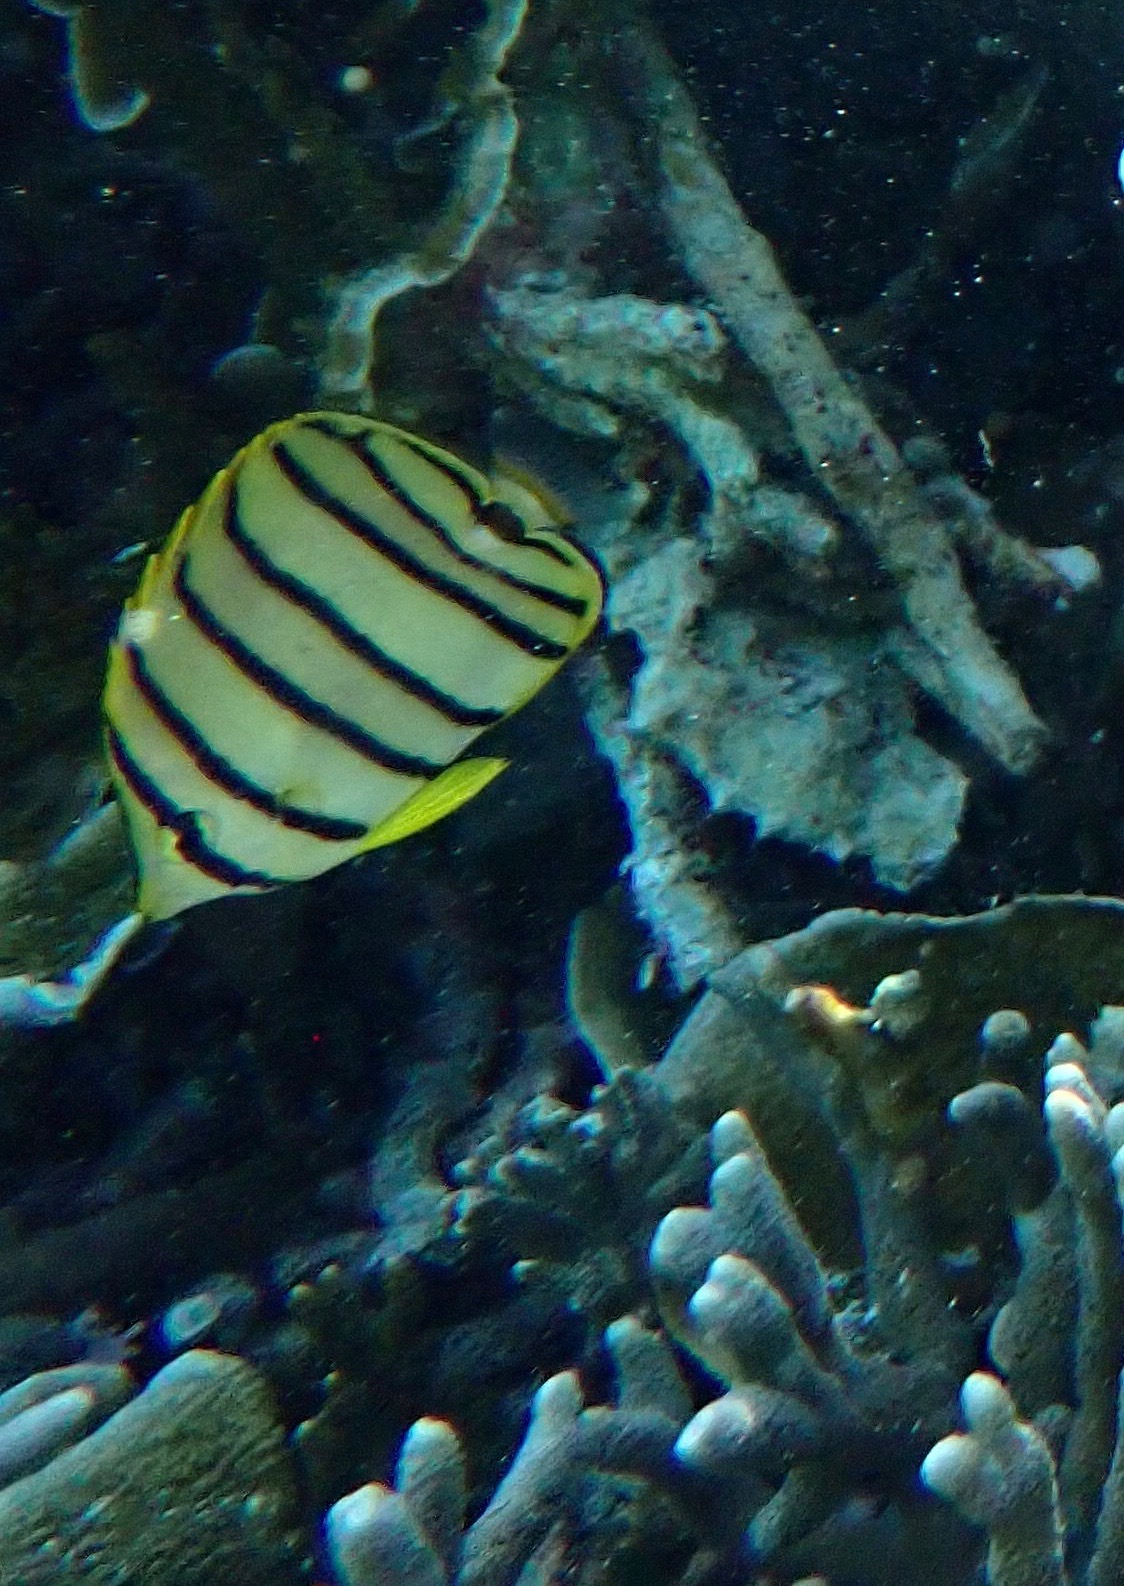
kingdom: Animalia
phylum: Chordata
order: Perciformes
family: Chaetodontidae
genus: Chaetodon
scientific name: Chaetodon octofasciatus
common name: Eightband butterflyfish
